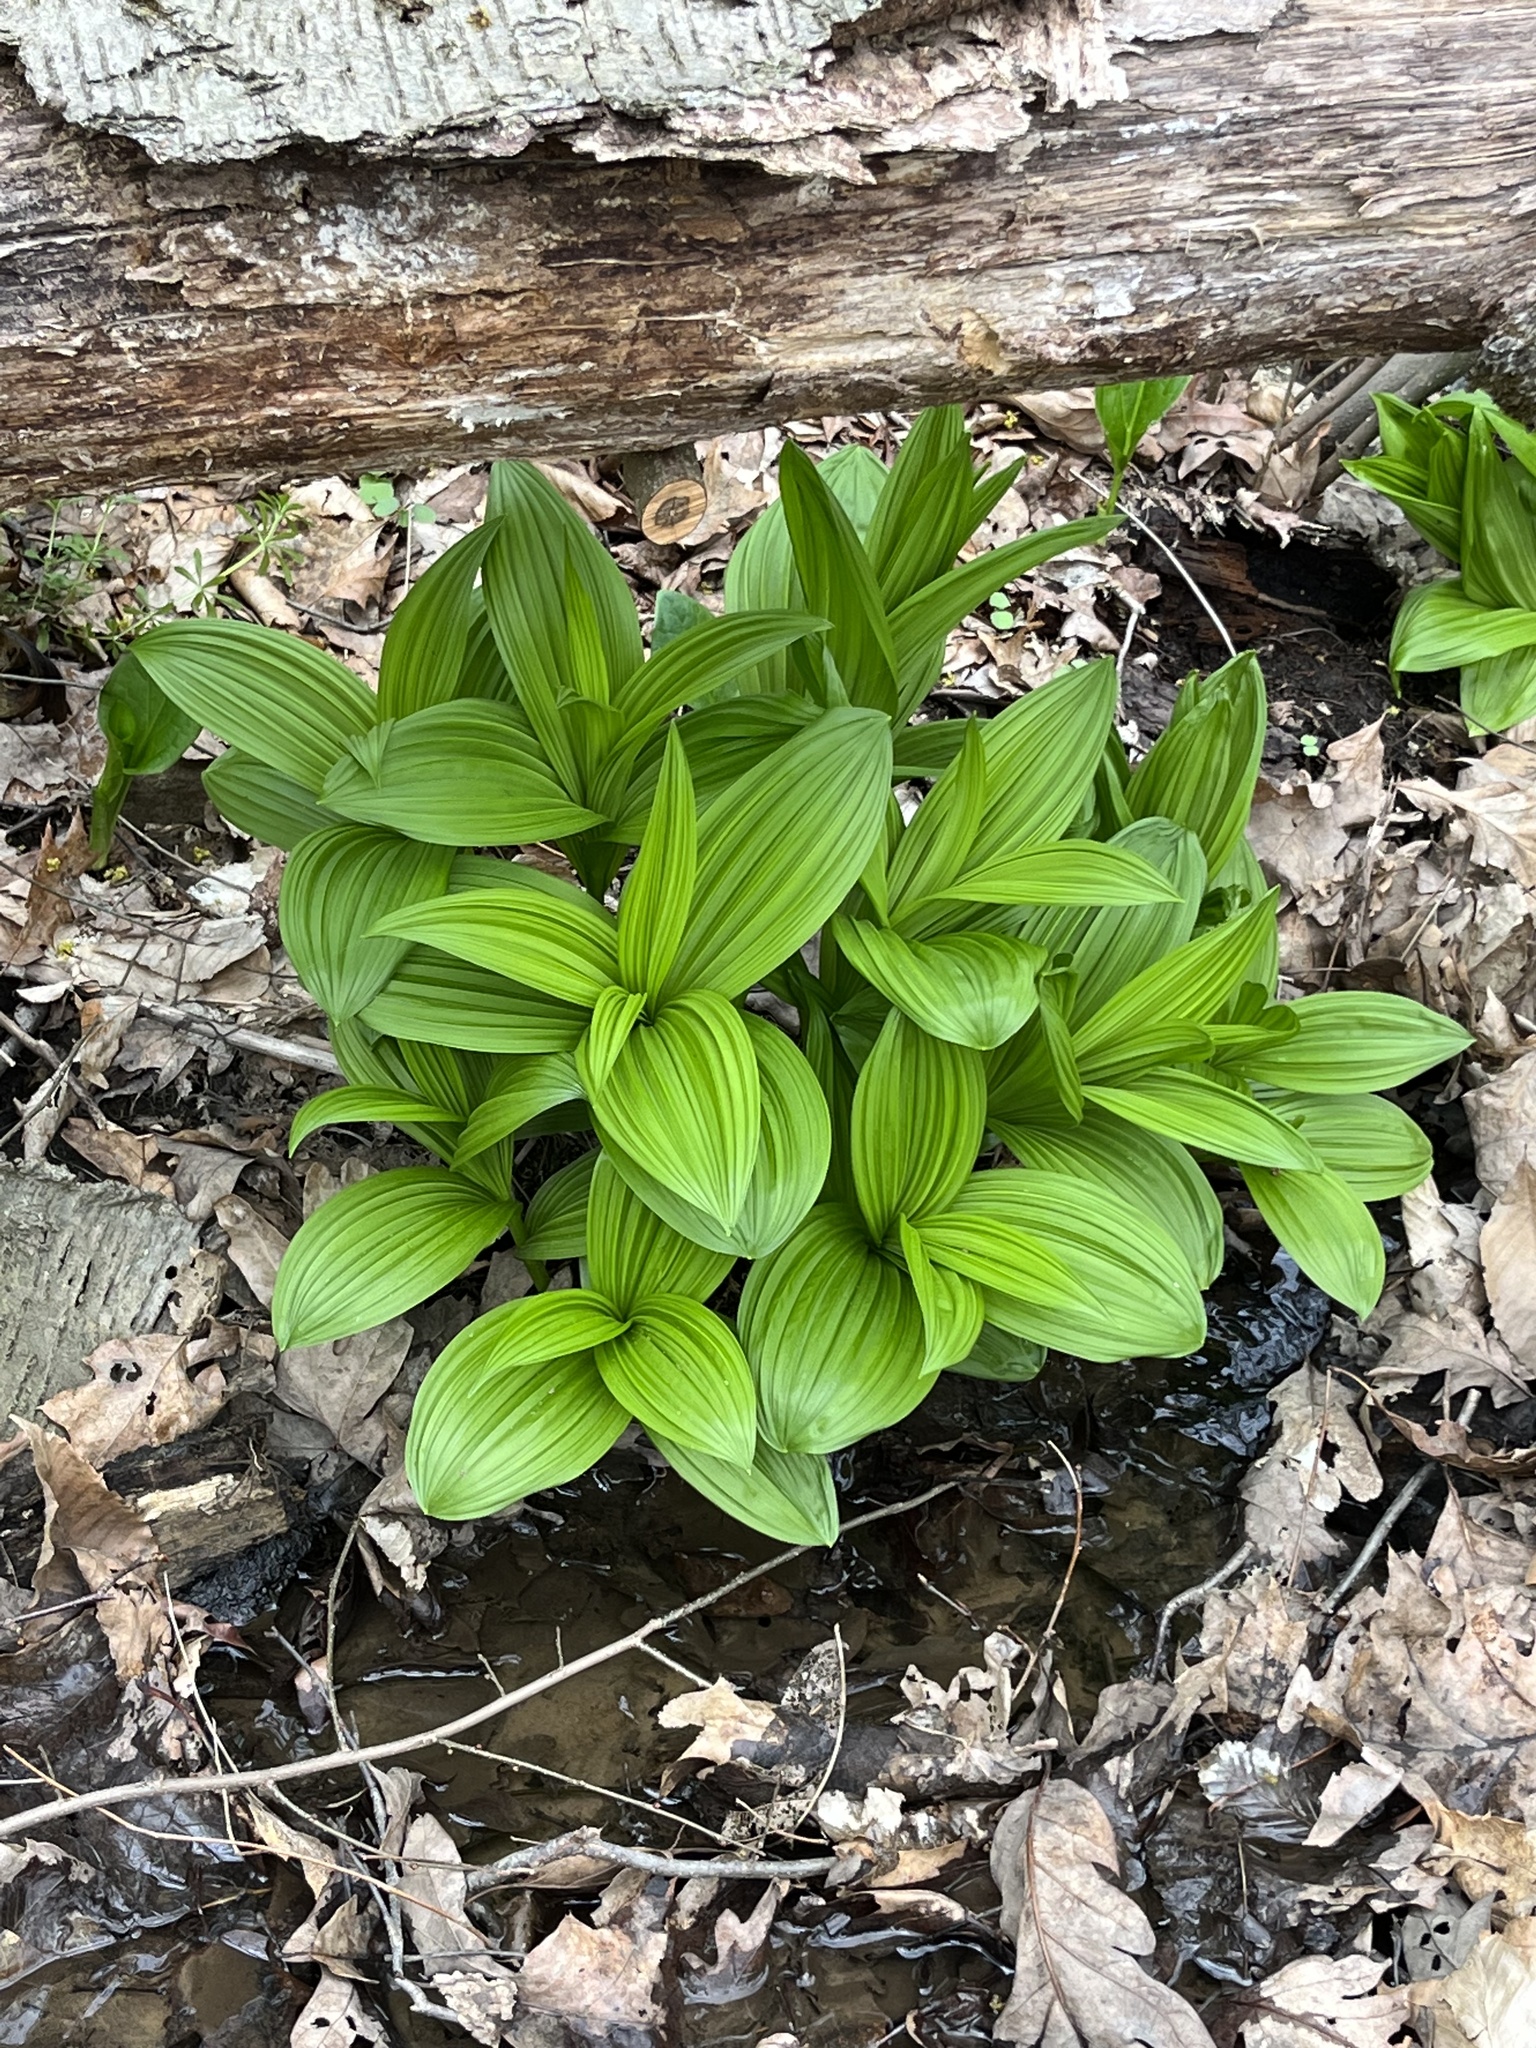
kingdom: Plantae
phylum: Tracheophyta
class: Liliopsida
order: Liliales
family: Melanthiaceae
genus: Veratrum
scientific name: Veratrum viride
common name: American false hellebore
